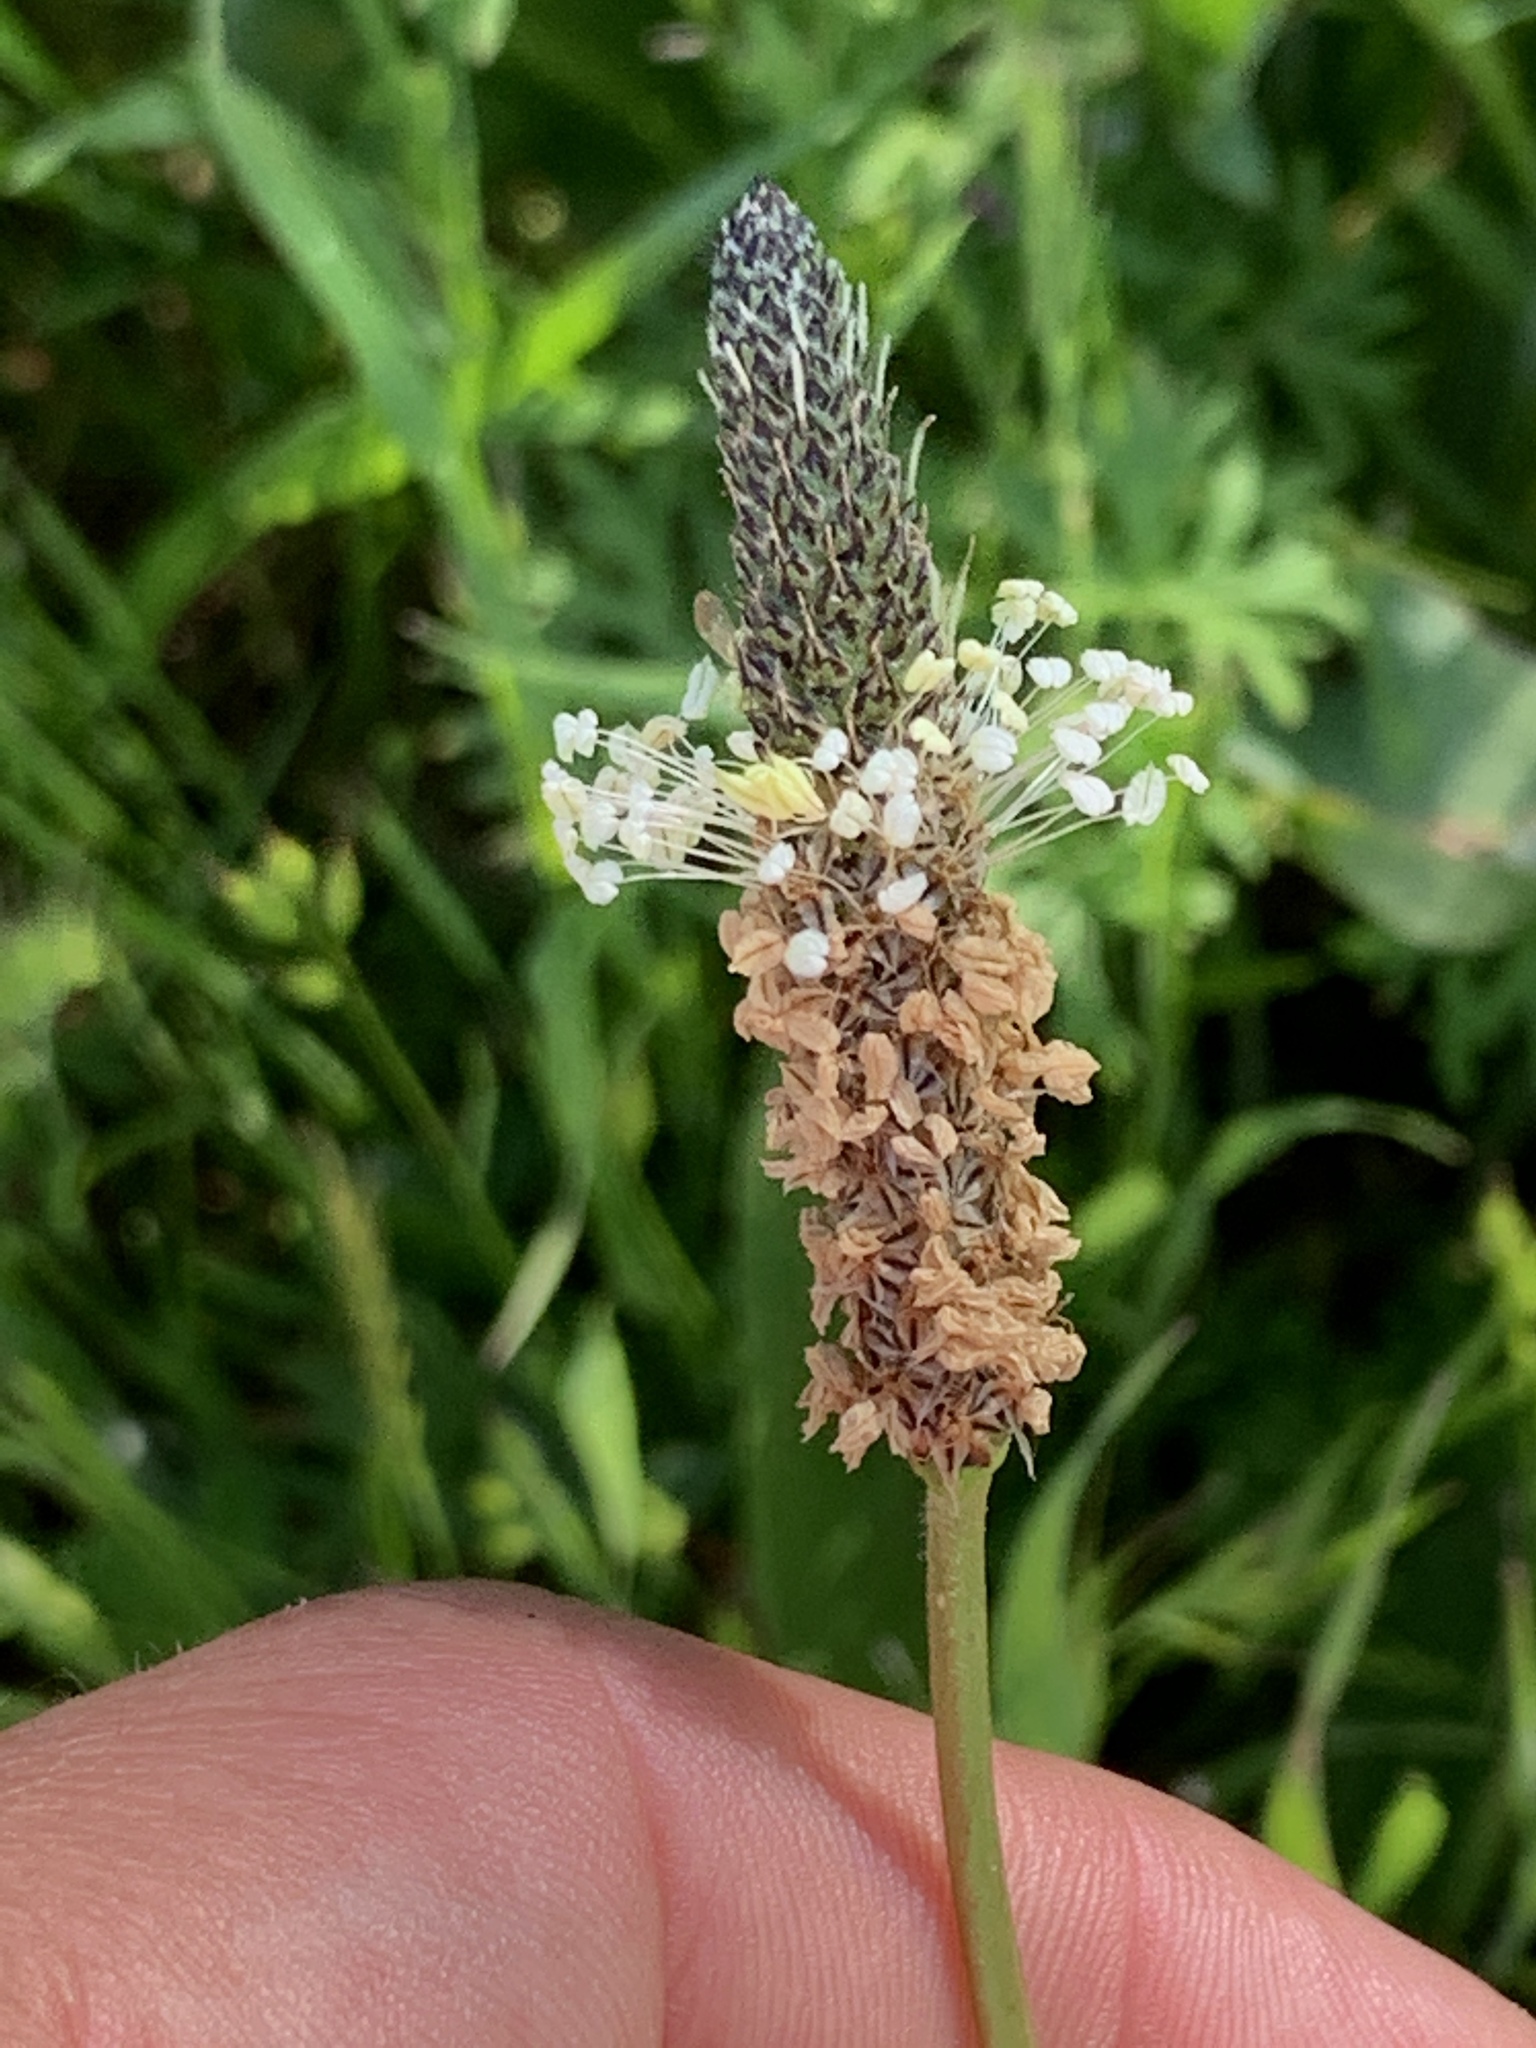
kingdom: Plantae
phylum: Tracheophyta
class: Magnoliopsida
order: Lamiales
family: Plantaginaceae
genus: Plantago
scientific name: Plantago lanceolata
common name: Ribwort plantain
